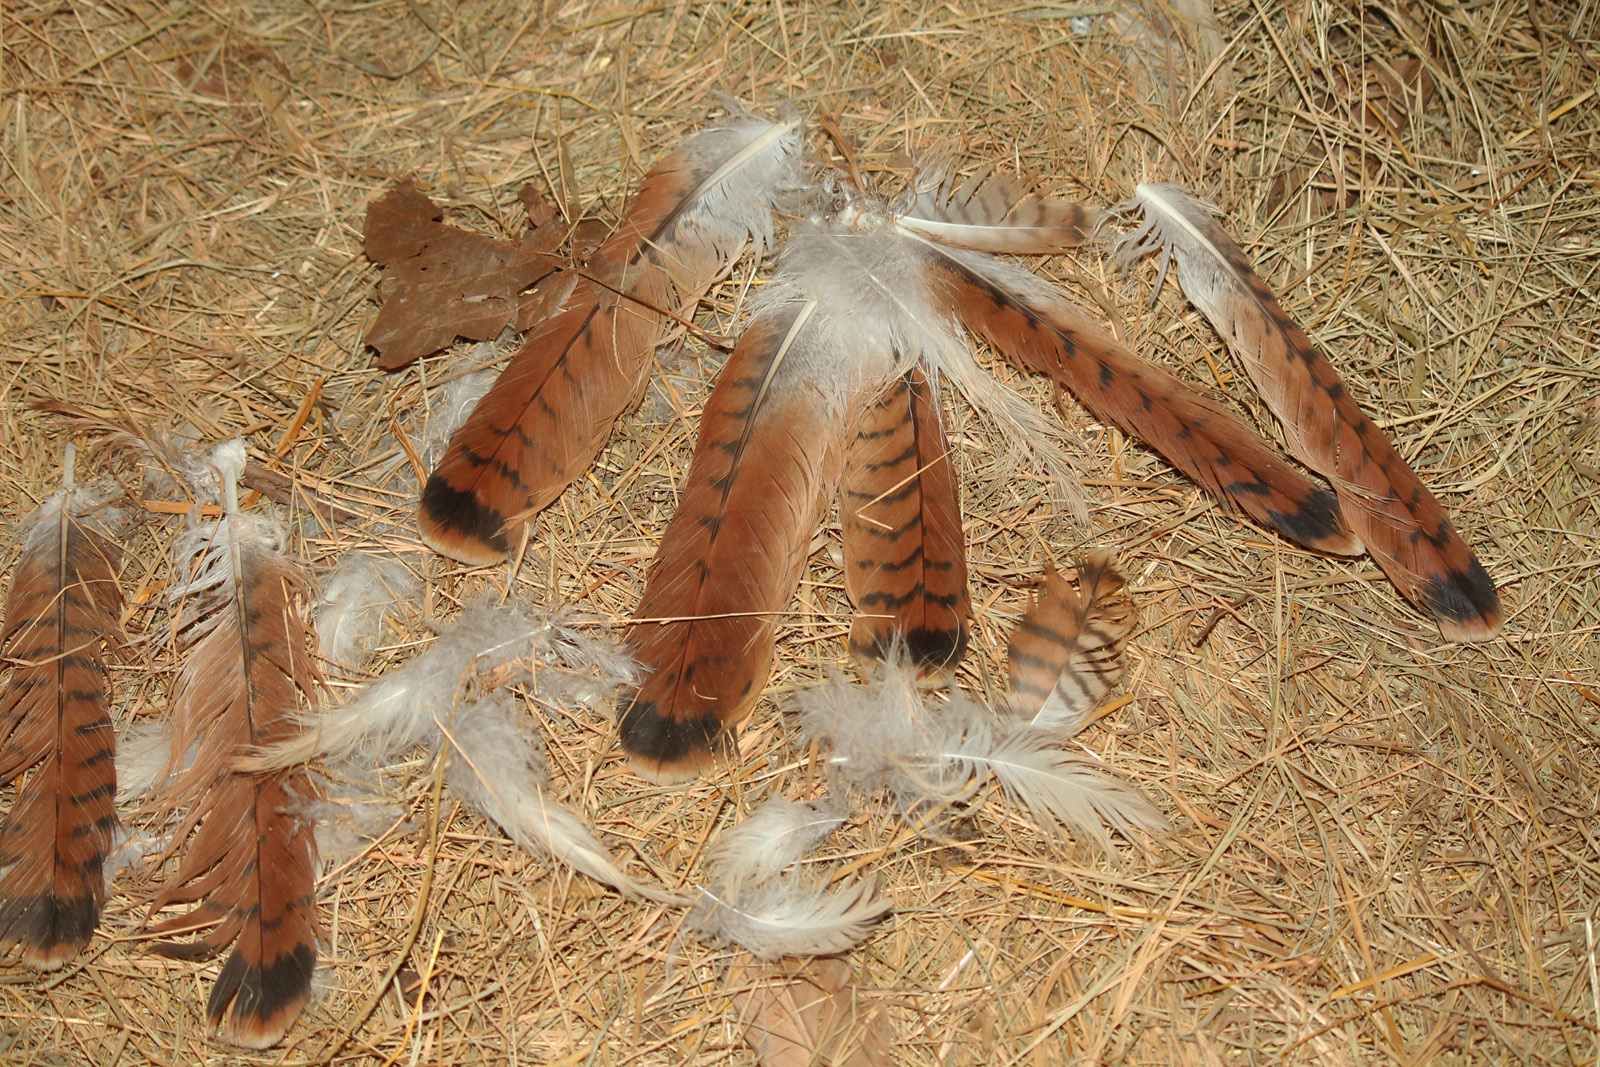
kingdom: Animalia
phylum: Chordata
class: Aves
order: Accipitriformes
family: Accipitridae
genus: Buteo
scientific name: Buteo jamaicensis
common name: Red-tailed hawk
